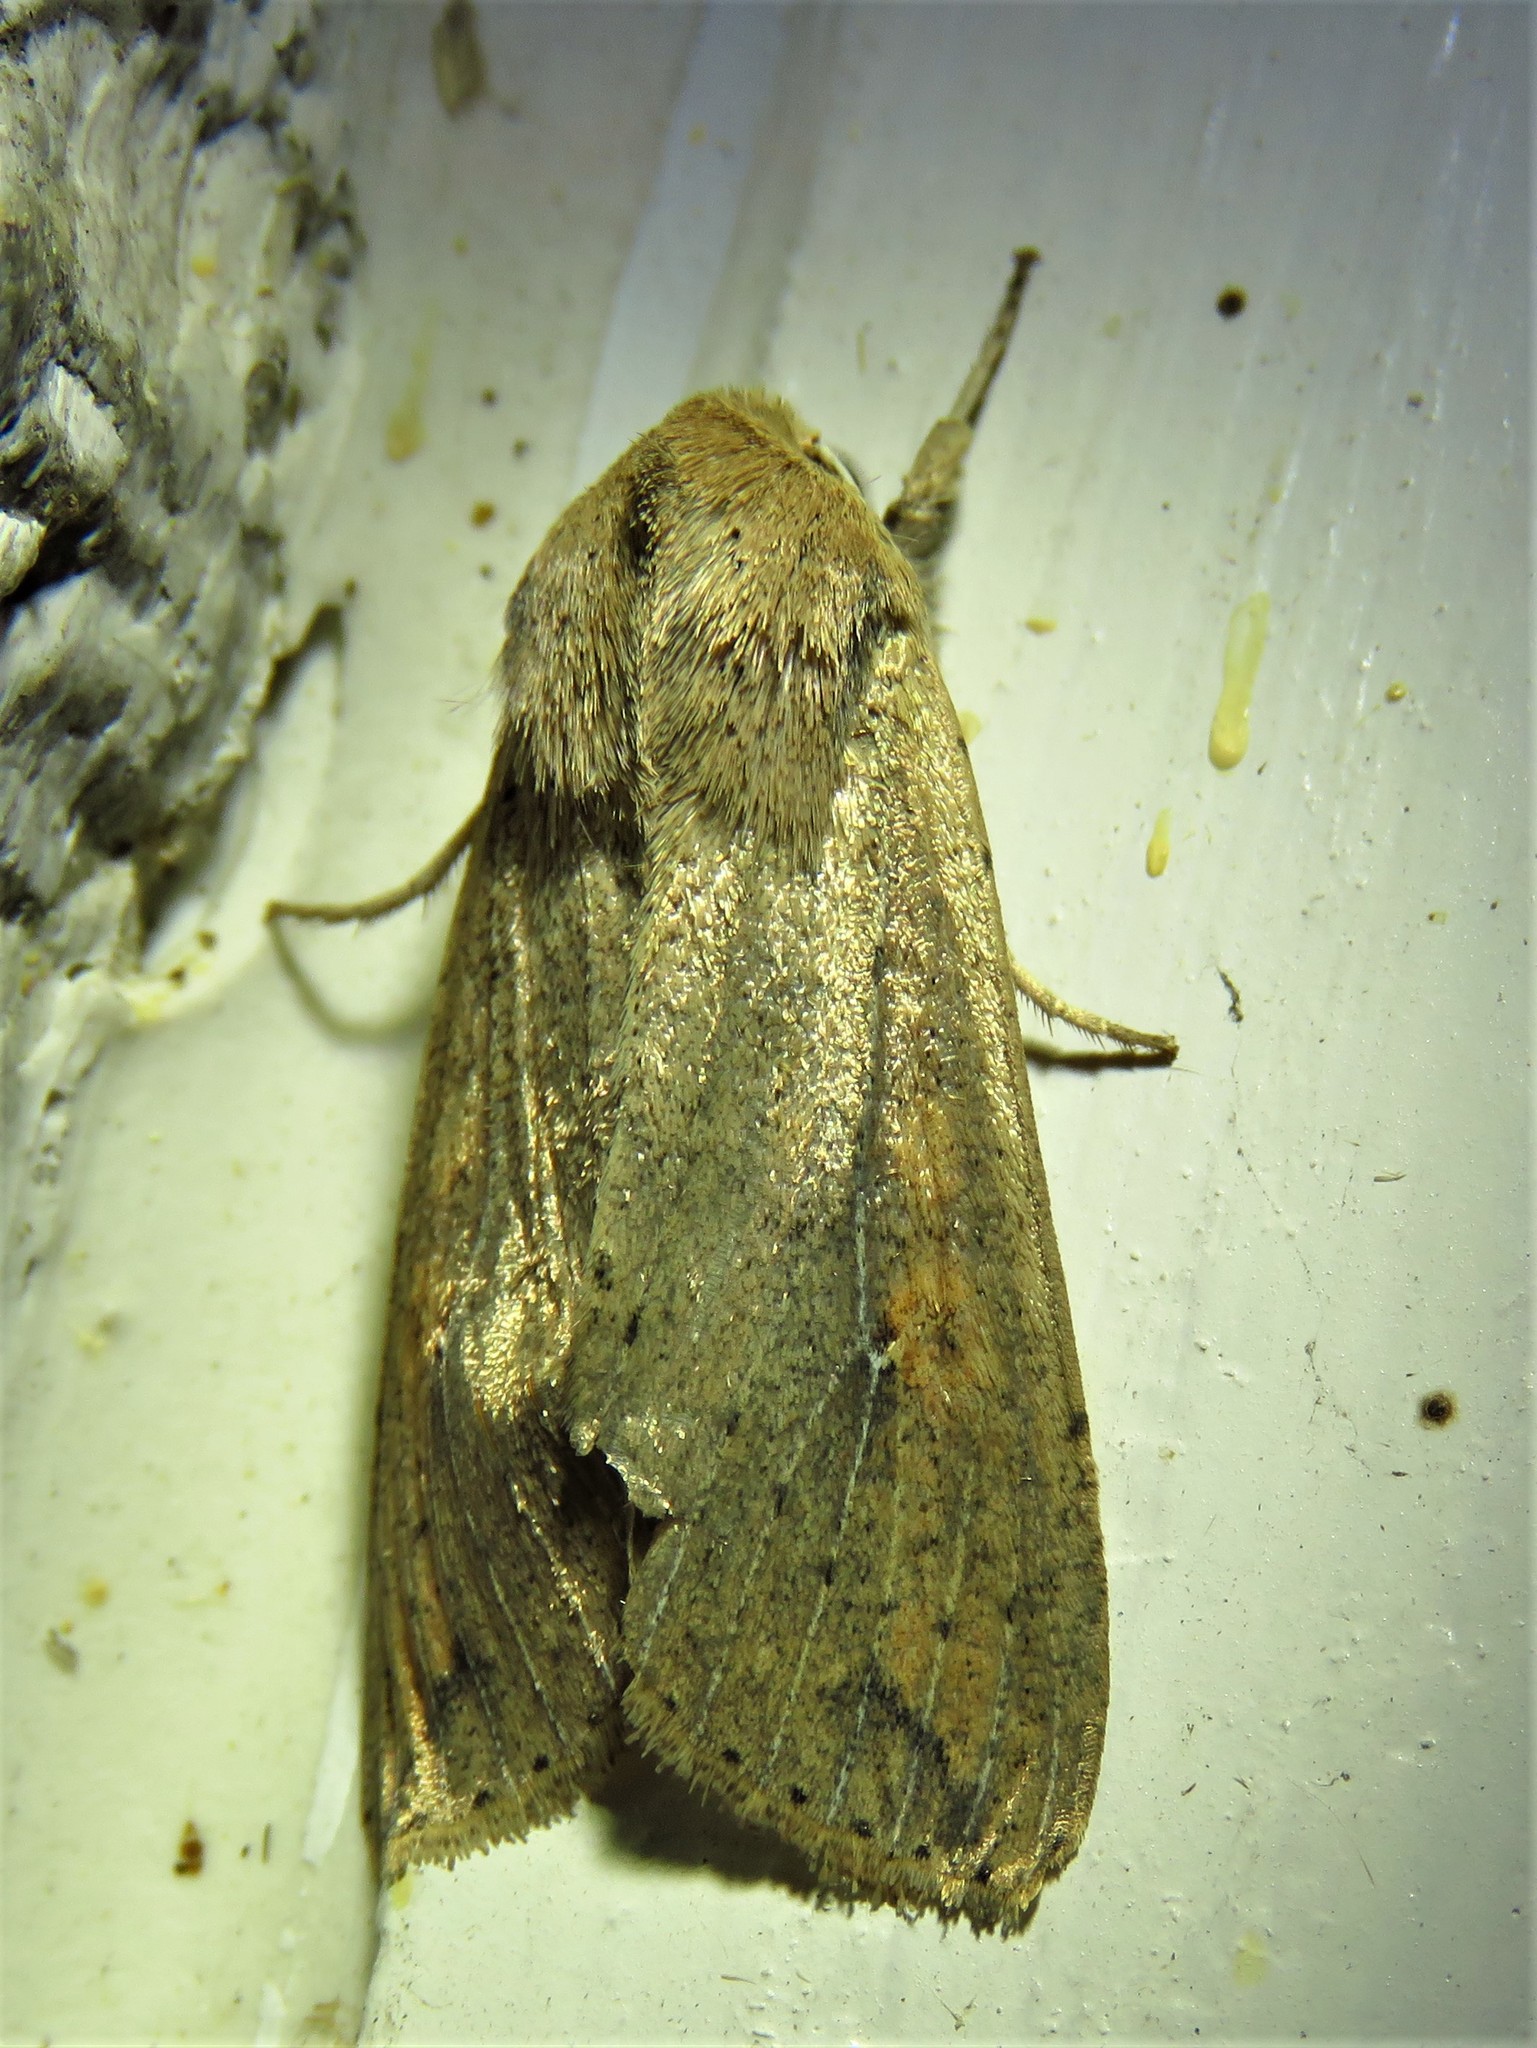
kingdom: Animalia
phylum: Arthropoda
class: Insecta
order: Lepidoptera
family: Noctuidae
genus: Mythimna
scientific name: Mythimna unipuncta
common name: White-speck
